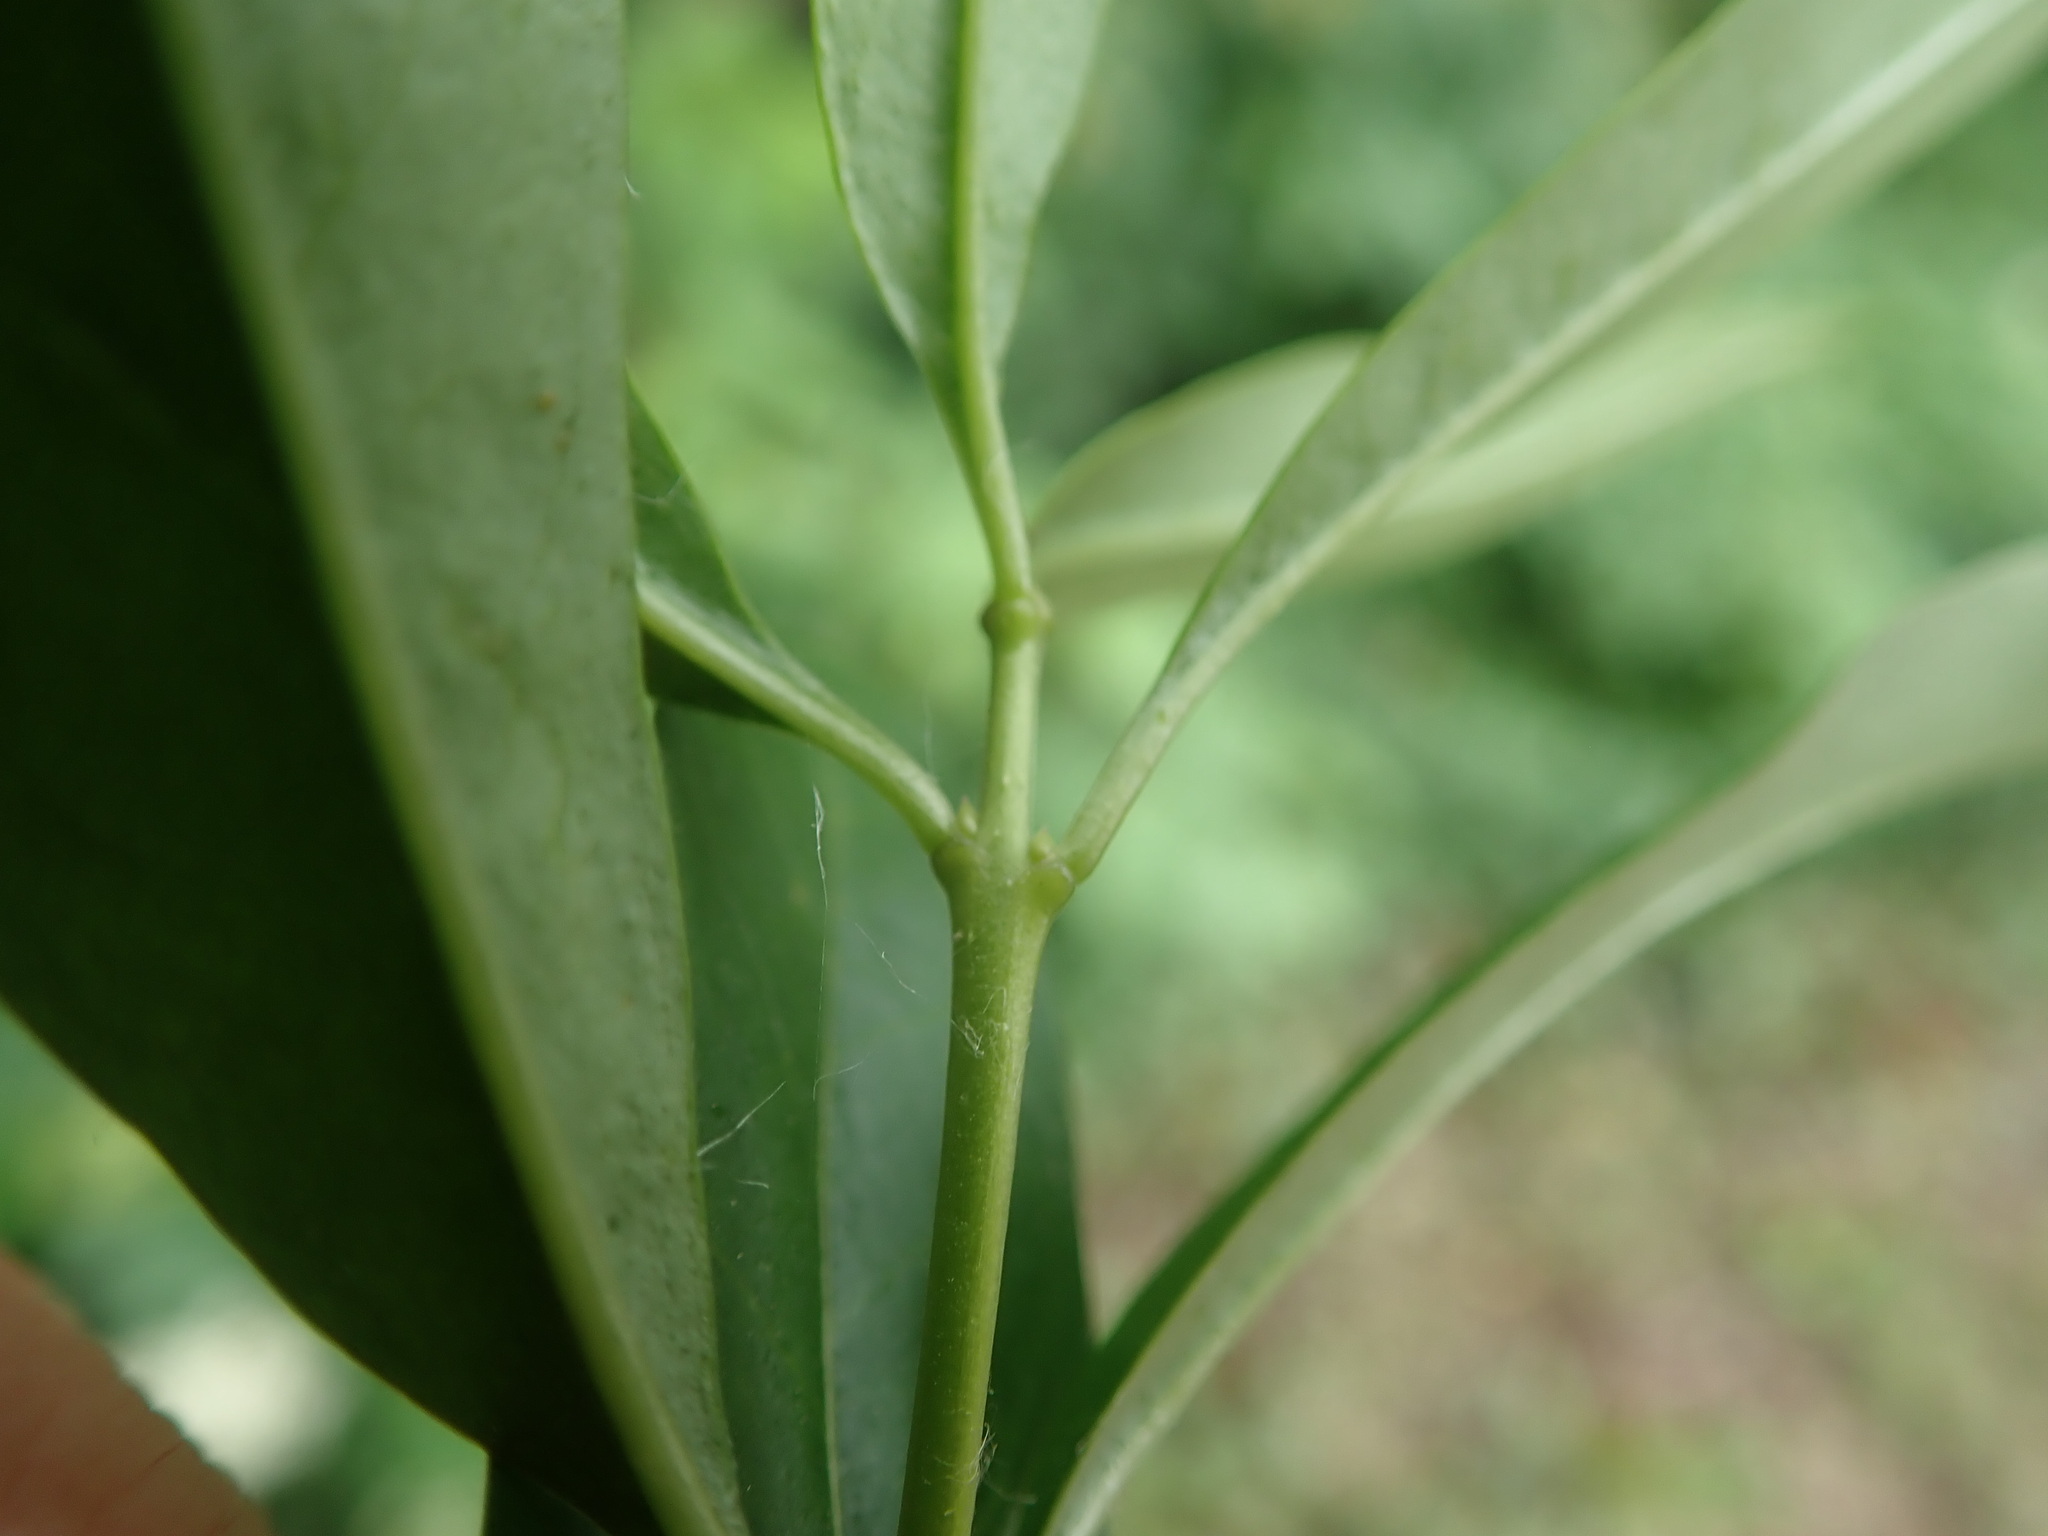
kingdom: Plantae
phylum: Tracheophyta
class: Magnoliopsida
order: Lamiales
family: Oleaceae
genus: Ligustrum
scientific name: Ligustrum vulgare
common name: Wild privet
